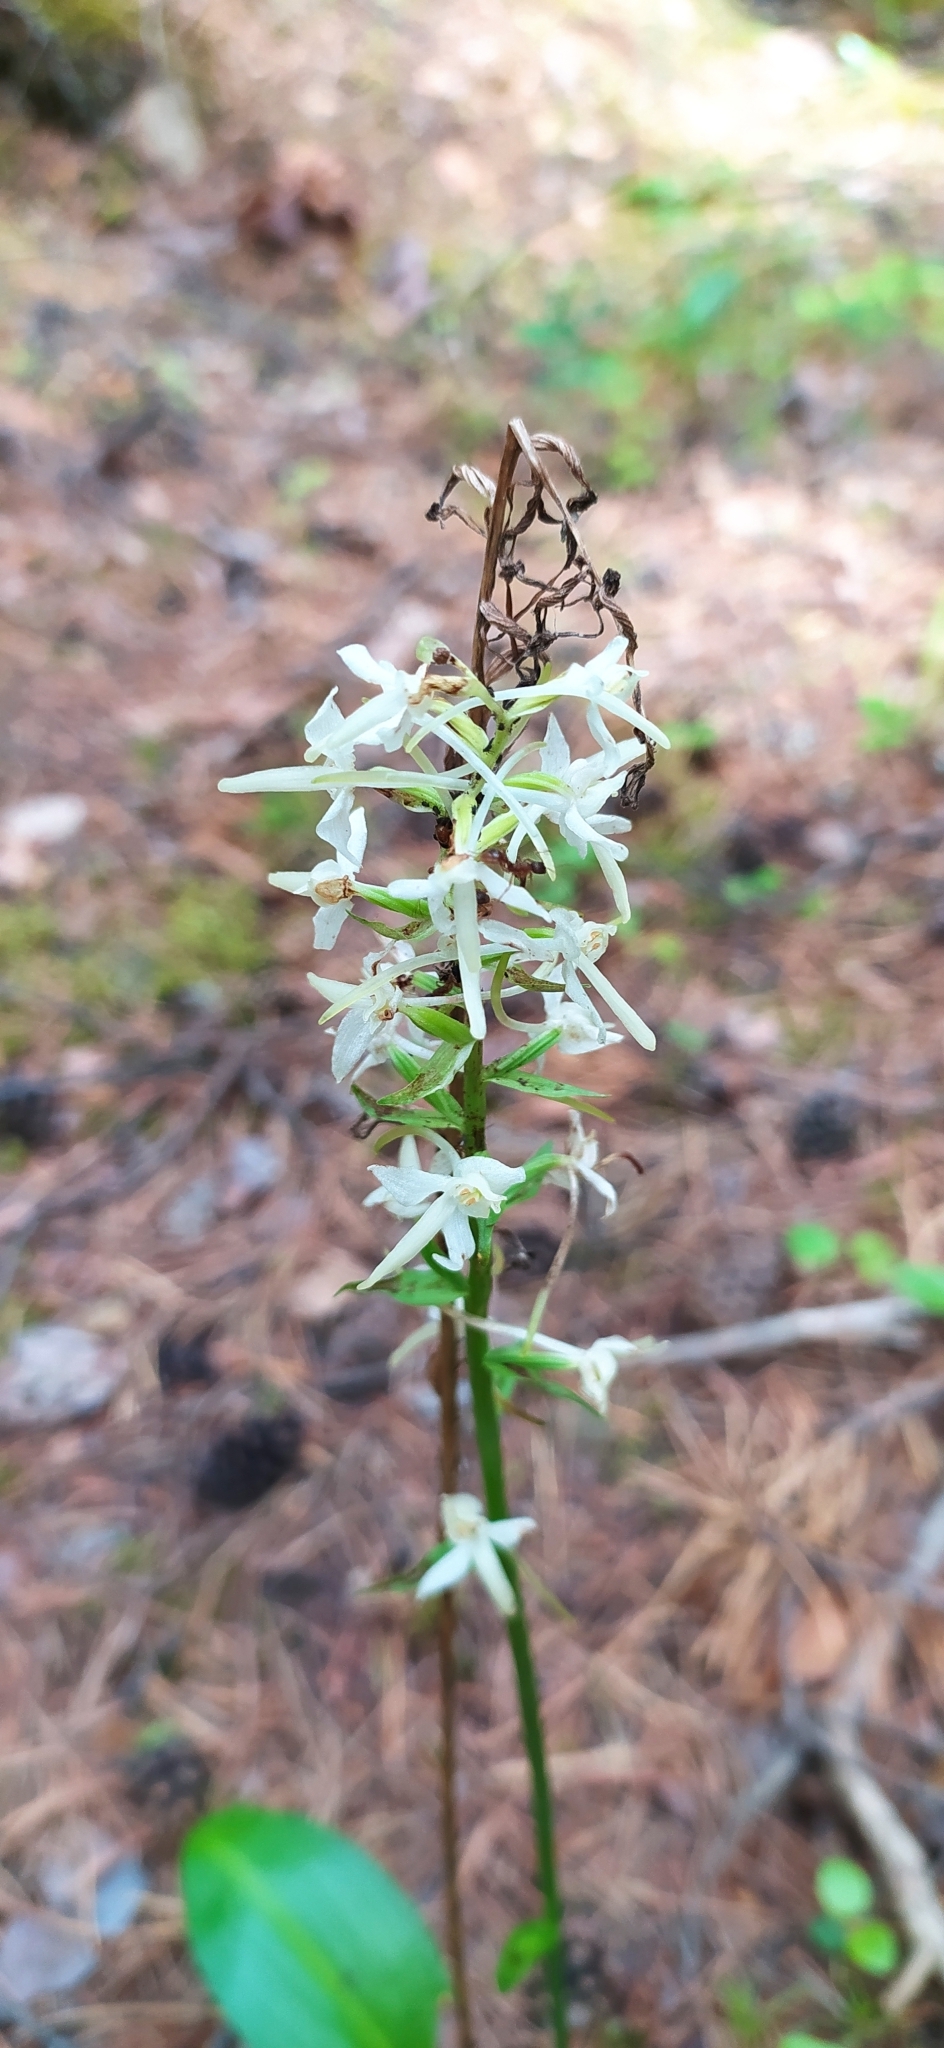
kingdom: Plantae
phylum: Tracheophyta
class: Liliopsida
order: Asparagales
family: Orchidaceae
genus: Platanthera
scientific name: Platanthera bifolia
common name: Lesser butterfly-orchid
